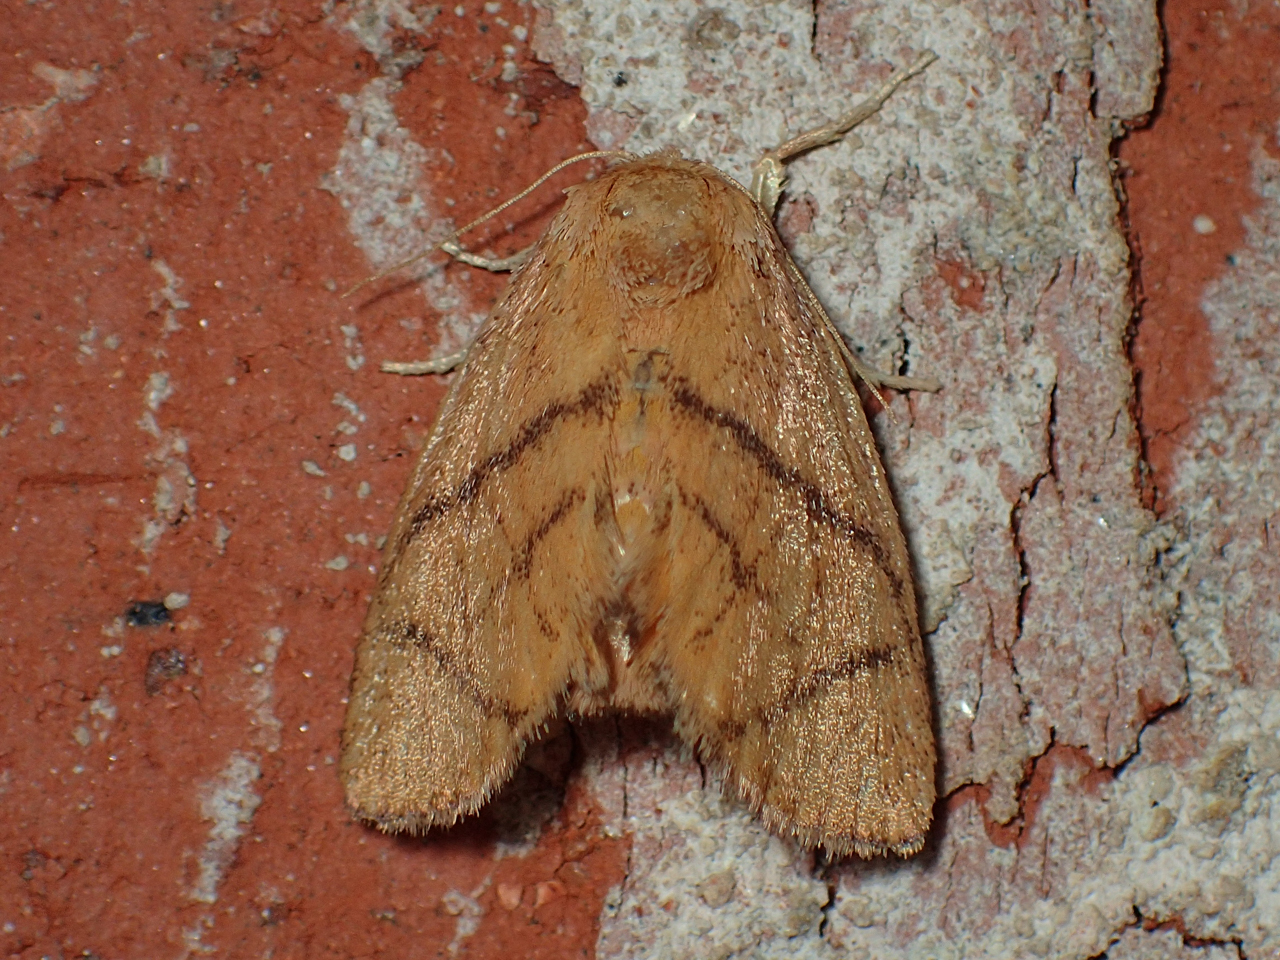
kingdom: Animalia
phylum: Arthropoda
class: Insecta
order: Lepidoptera
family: Limacodidae
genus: Apoda
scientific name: Apoda y-inversa
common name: Yellow-collared slug moth
